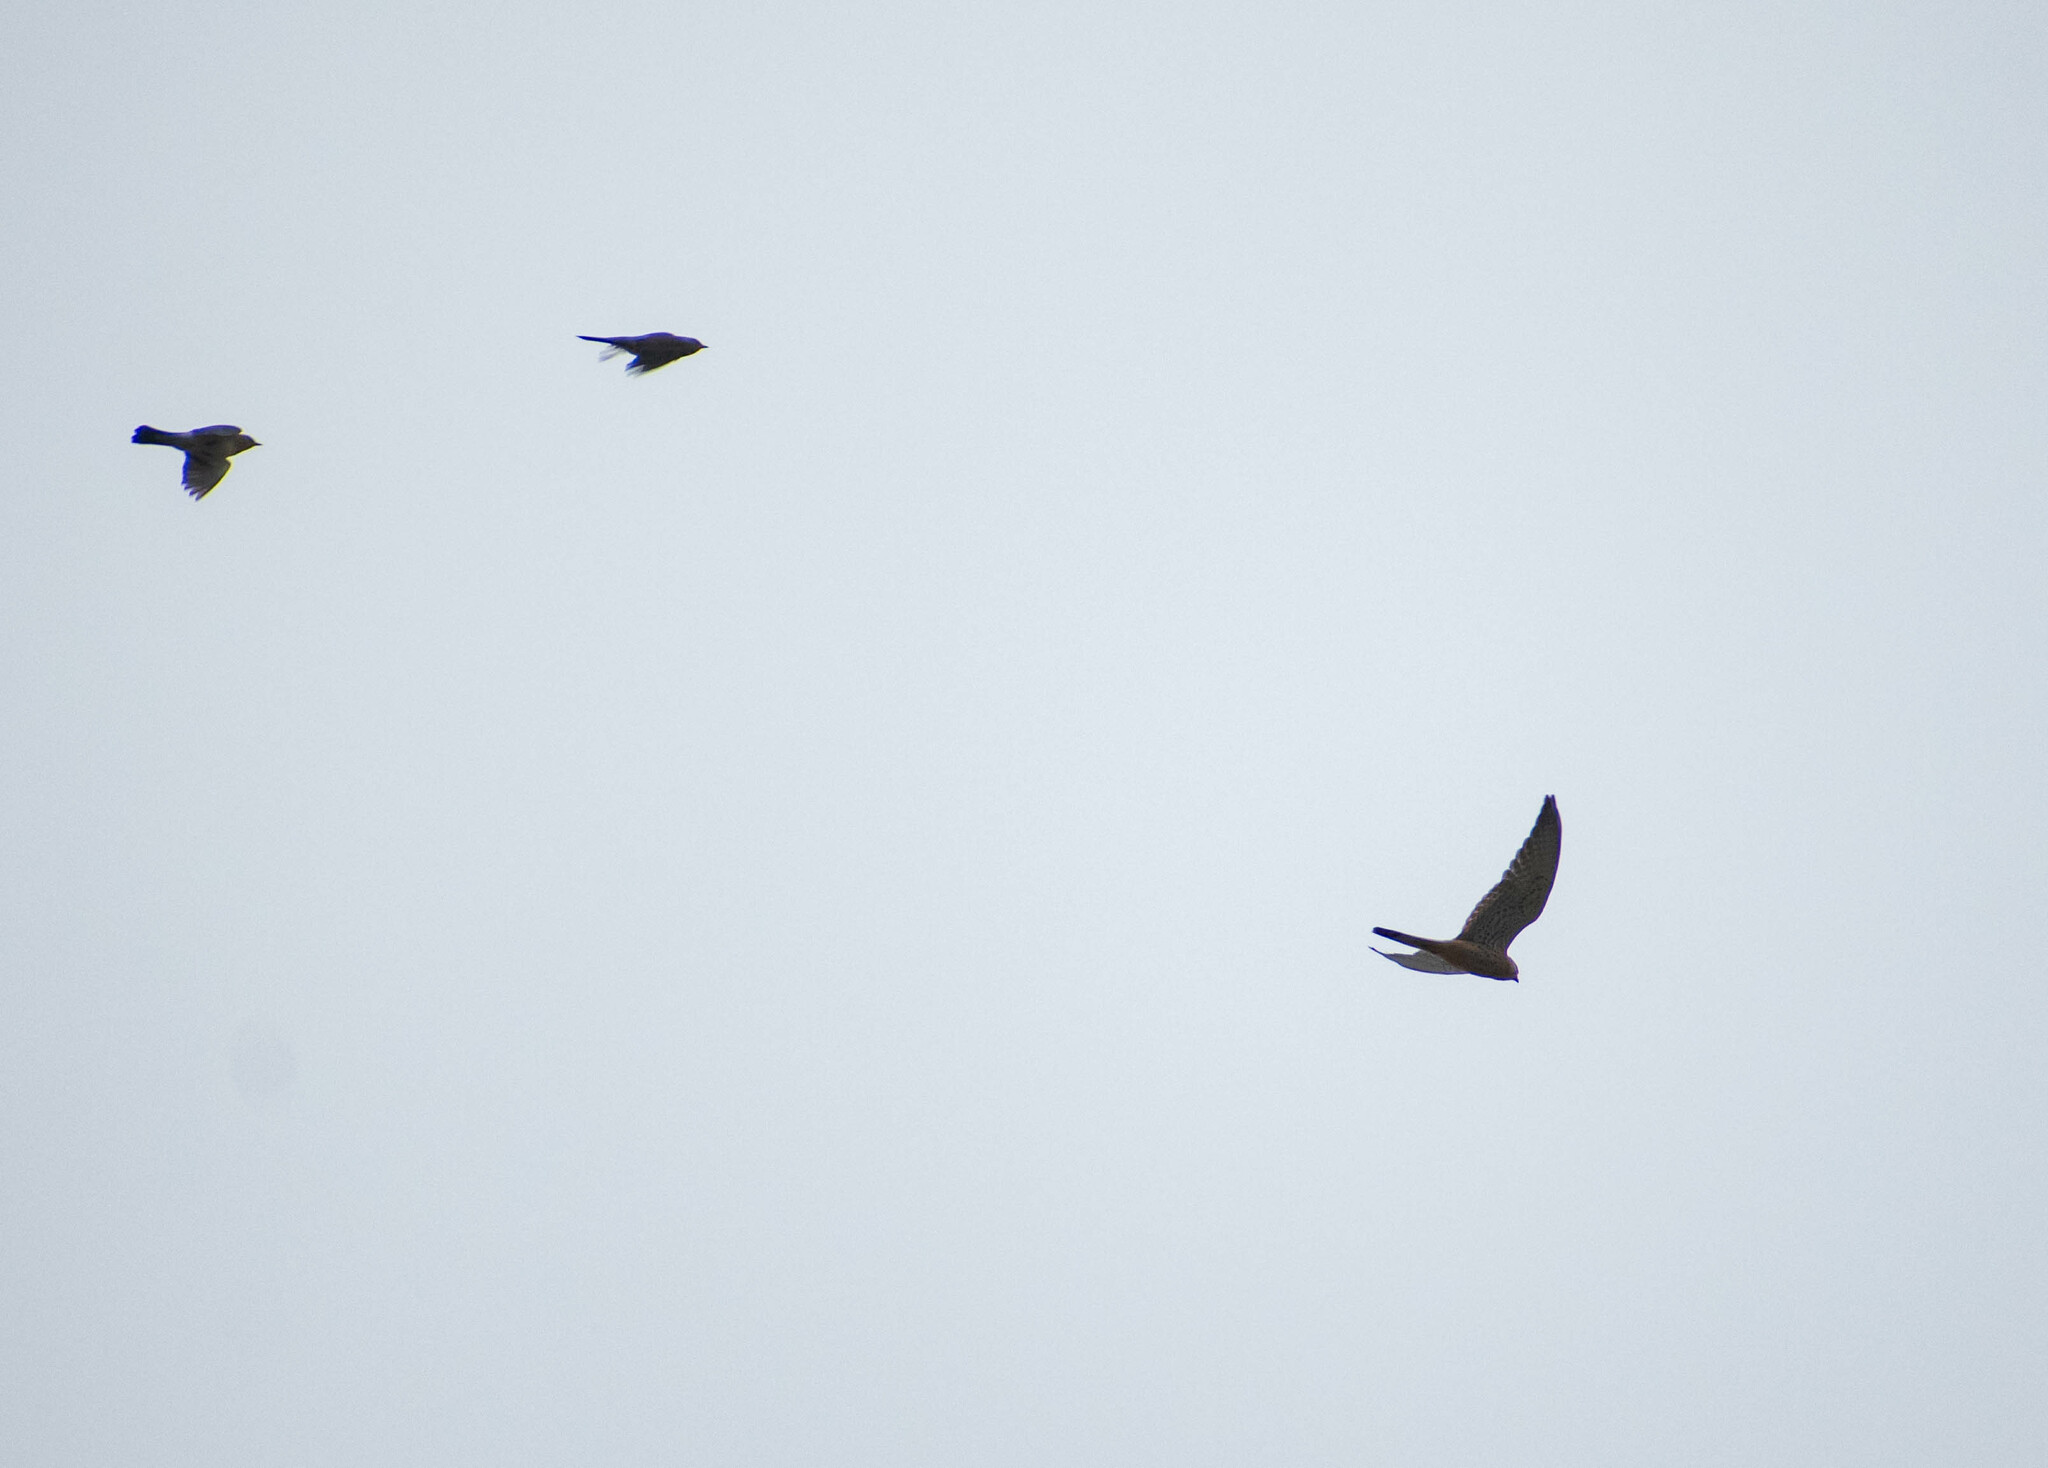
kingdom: Animalia
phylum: Chordata
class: Aves
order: Falconiformes
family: Falconidae
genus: Falco
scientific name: Falco tinnunculus
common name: Common kestrel
